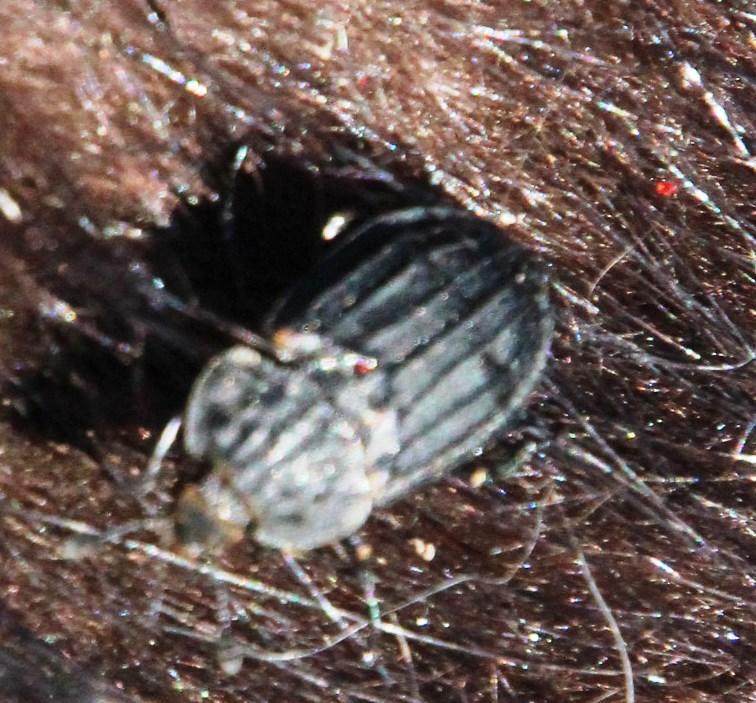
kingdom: Animalia
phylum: Arthropoda
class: Insecta
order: Coleoptera
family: Staphylinidae
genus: Thanatophilus
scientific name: Thanatophilus capensis
